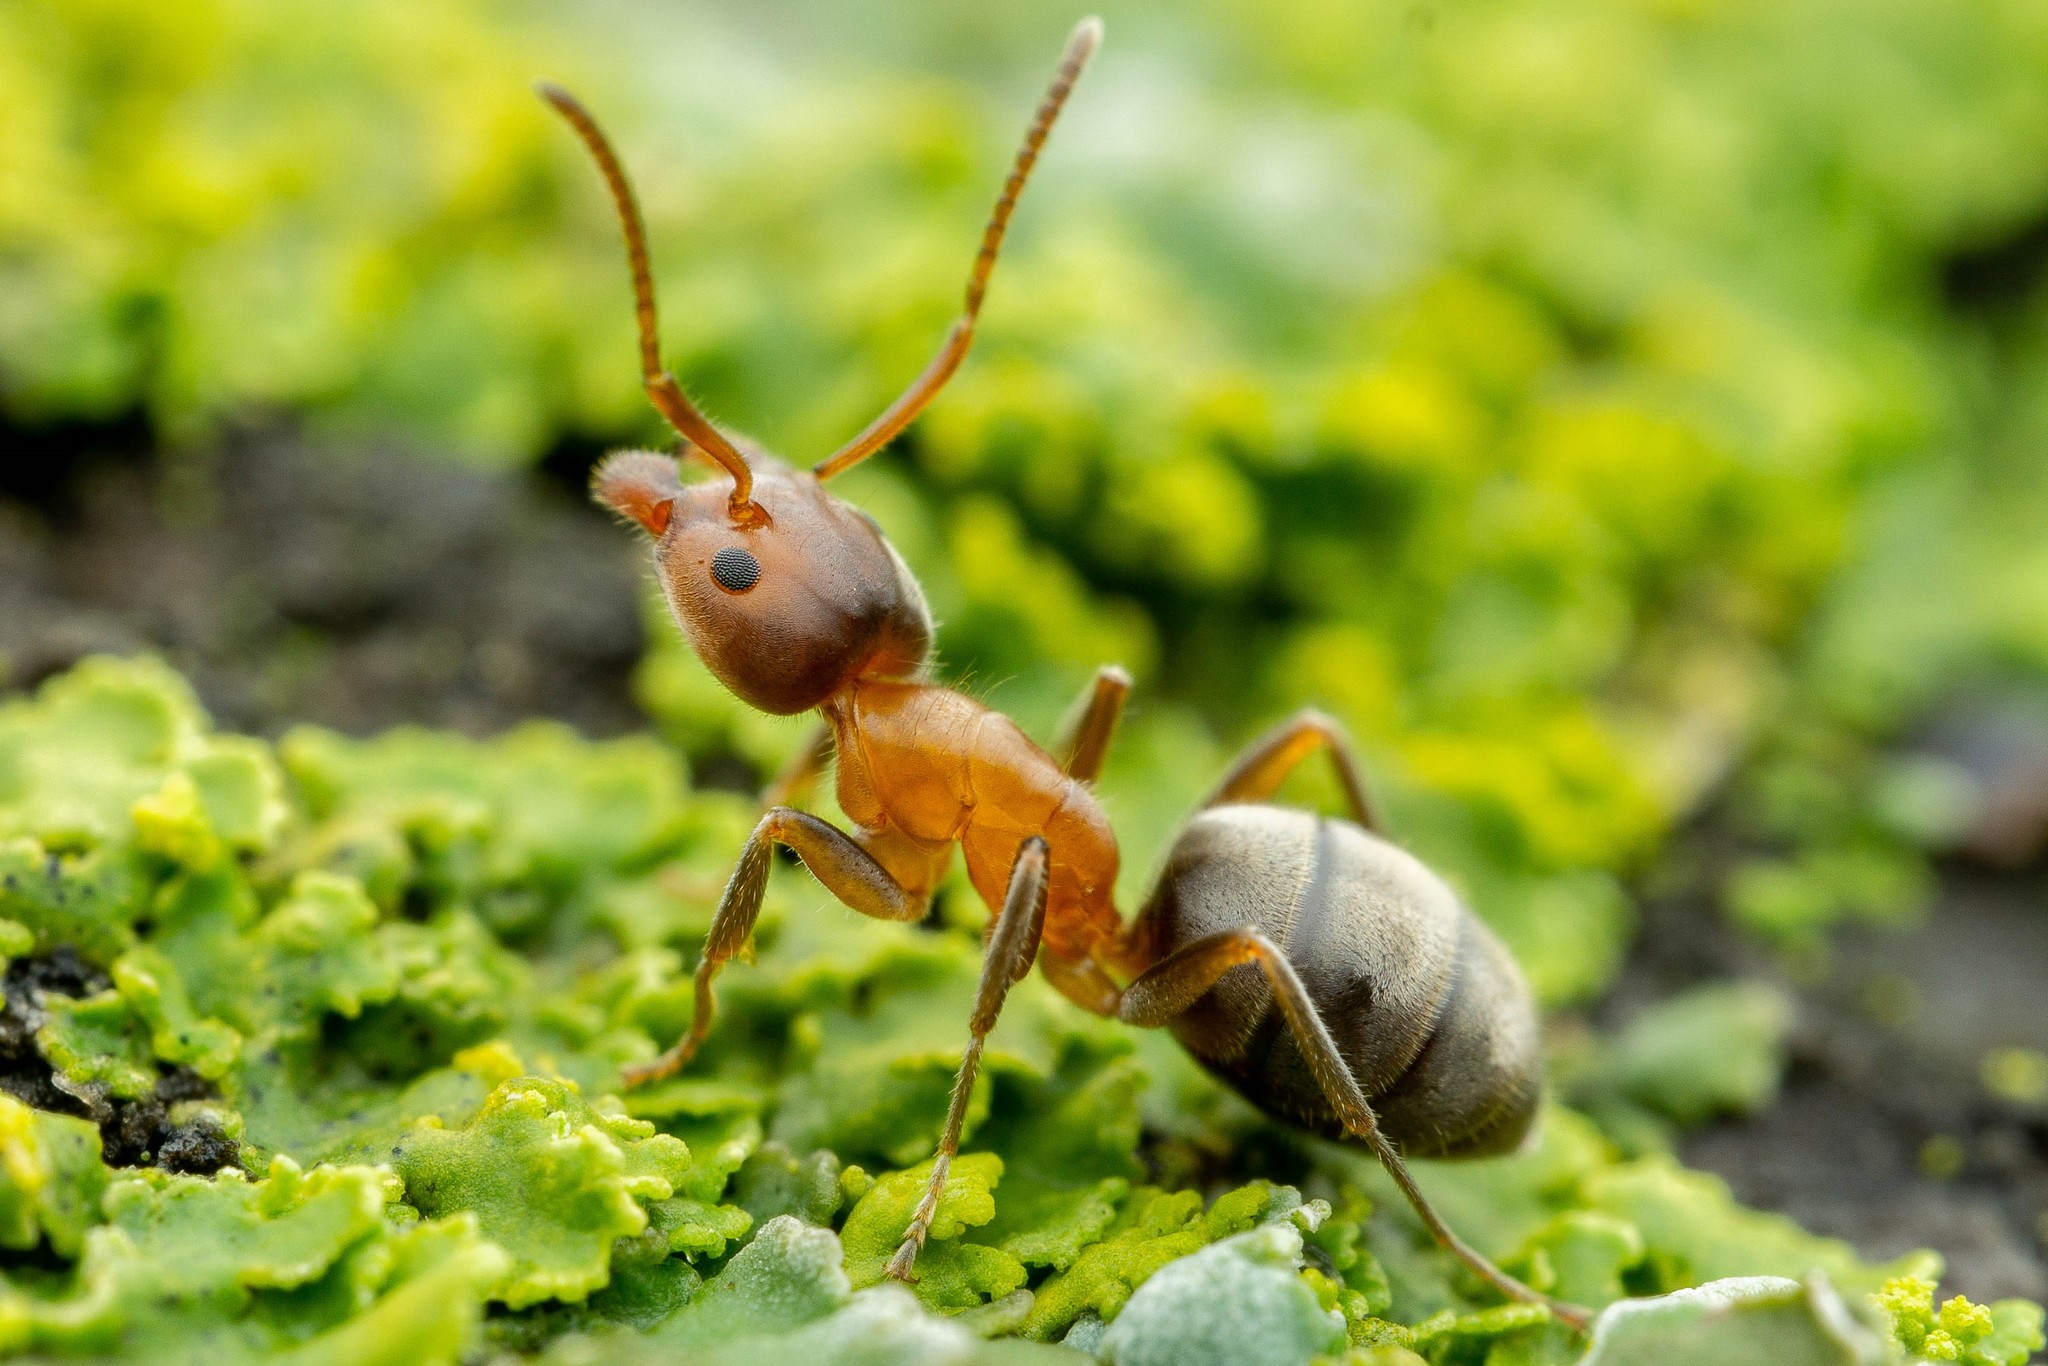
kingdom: Animalia
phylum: Arthropoda
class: Insecta
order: Hymenoptera
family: Formicidae
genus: Liometopum
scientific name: Liometopum occidentale
